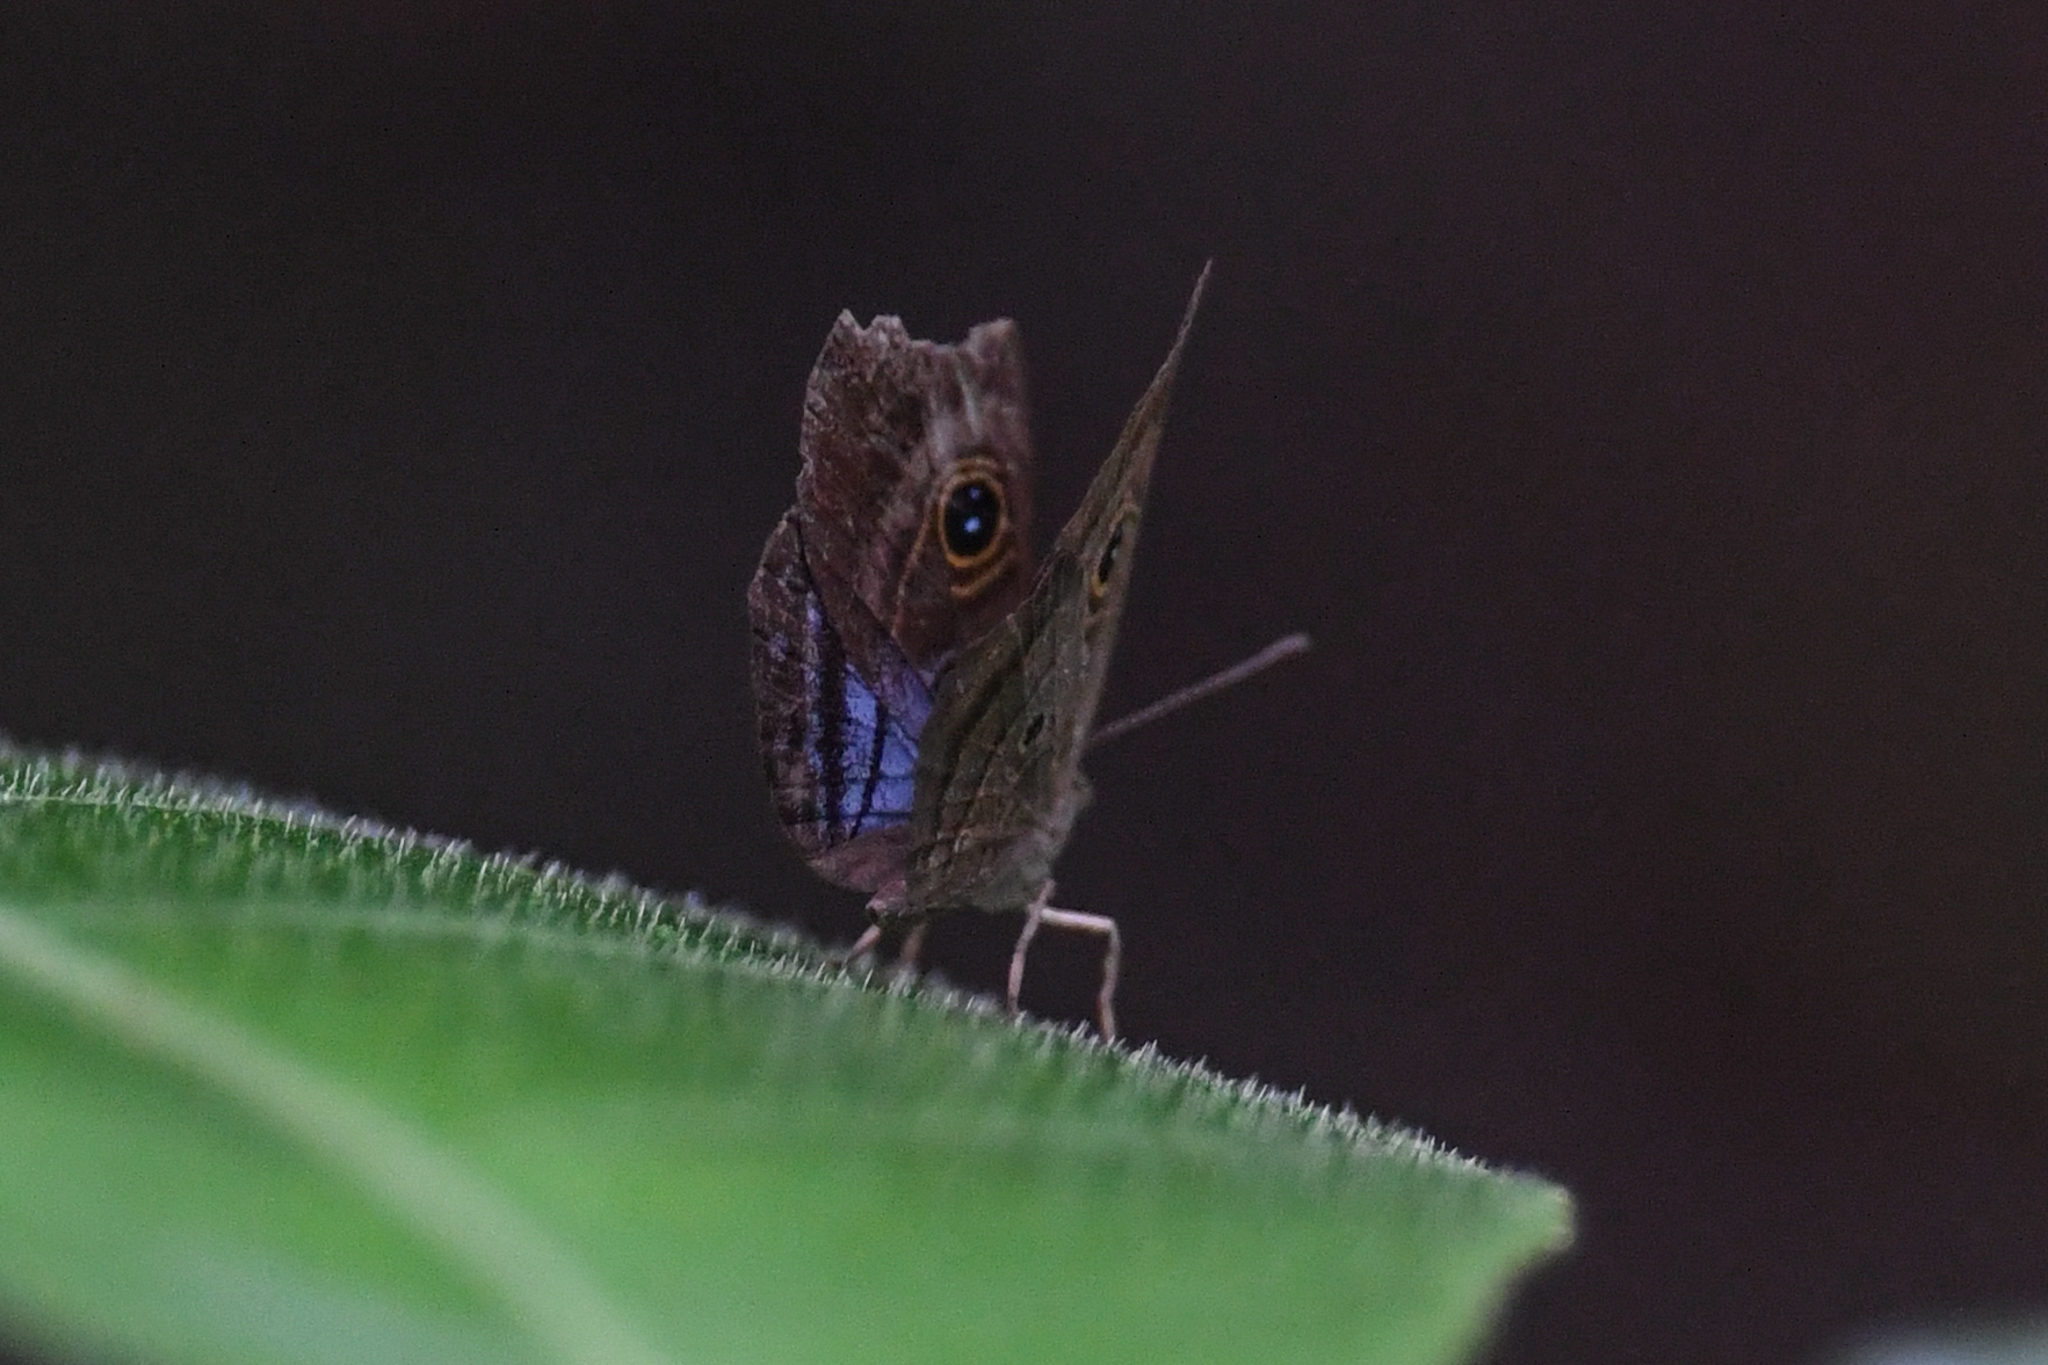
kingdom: Animalia
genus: Mesosemia
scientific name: Mesosemia lamachus
